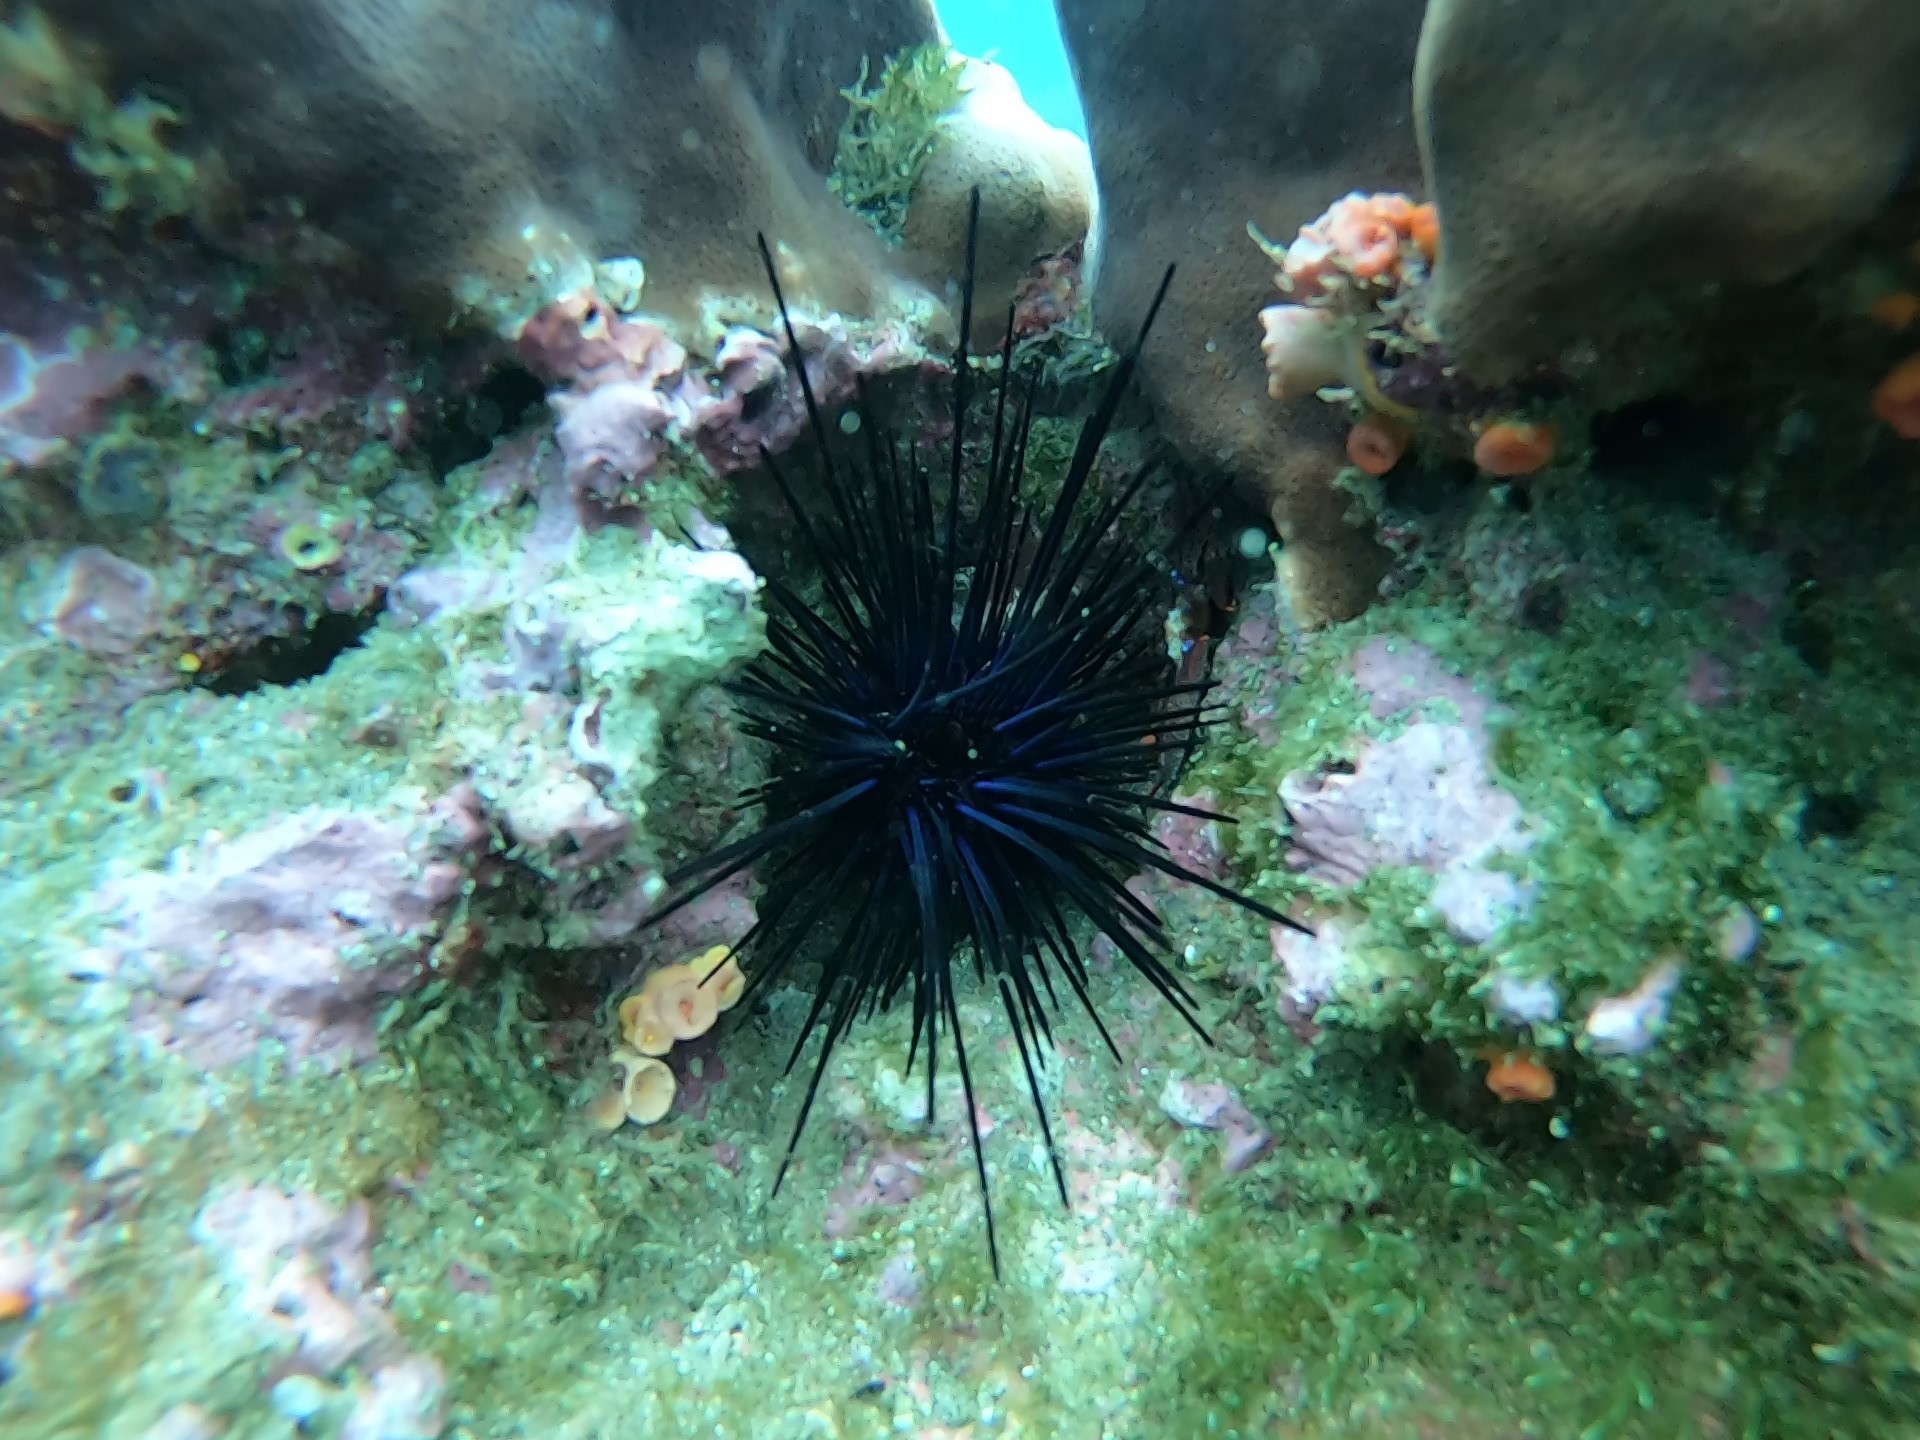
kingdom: Animalia
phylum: Echinodermata
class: Echinoidea
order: Diadematoida
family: Diadematidae
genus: Diadema
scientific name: Diadema mexicanum
